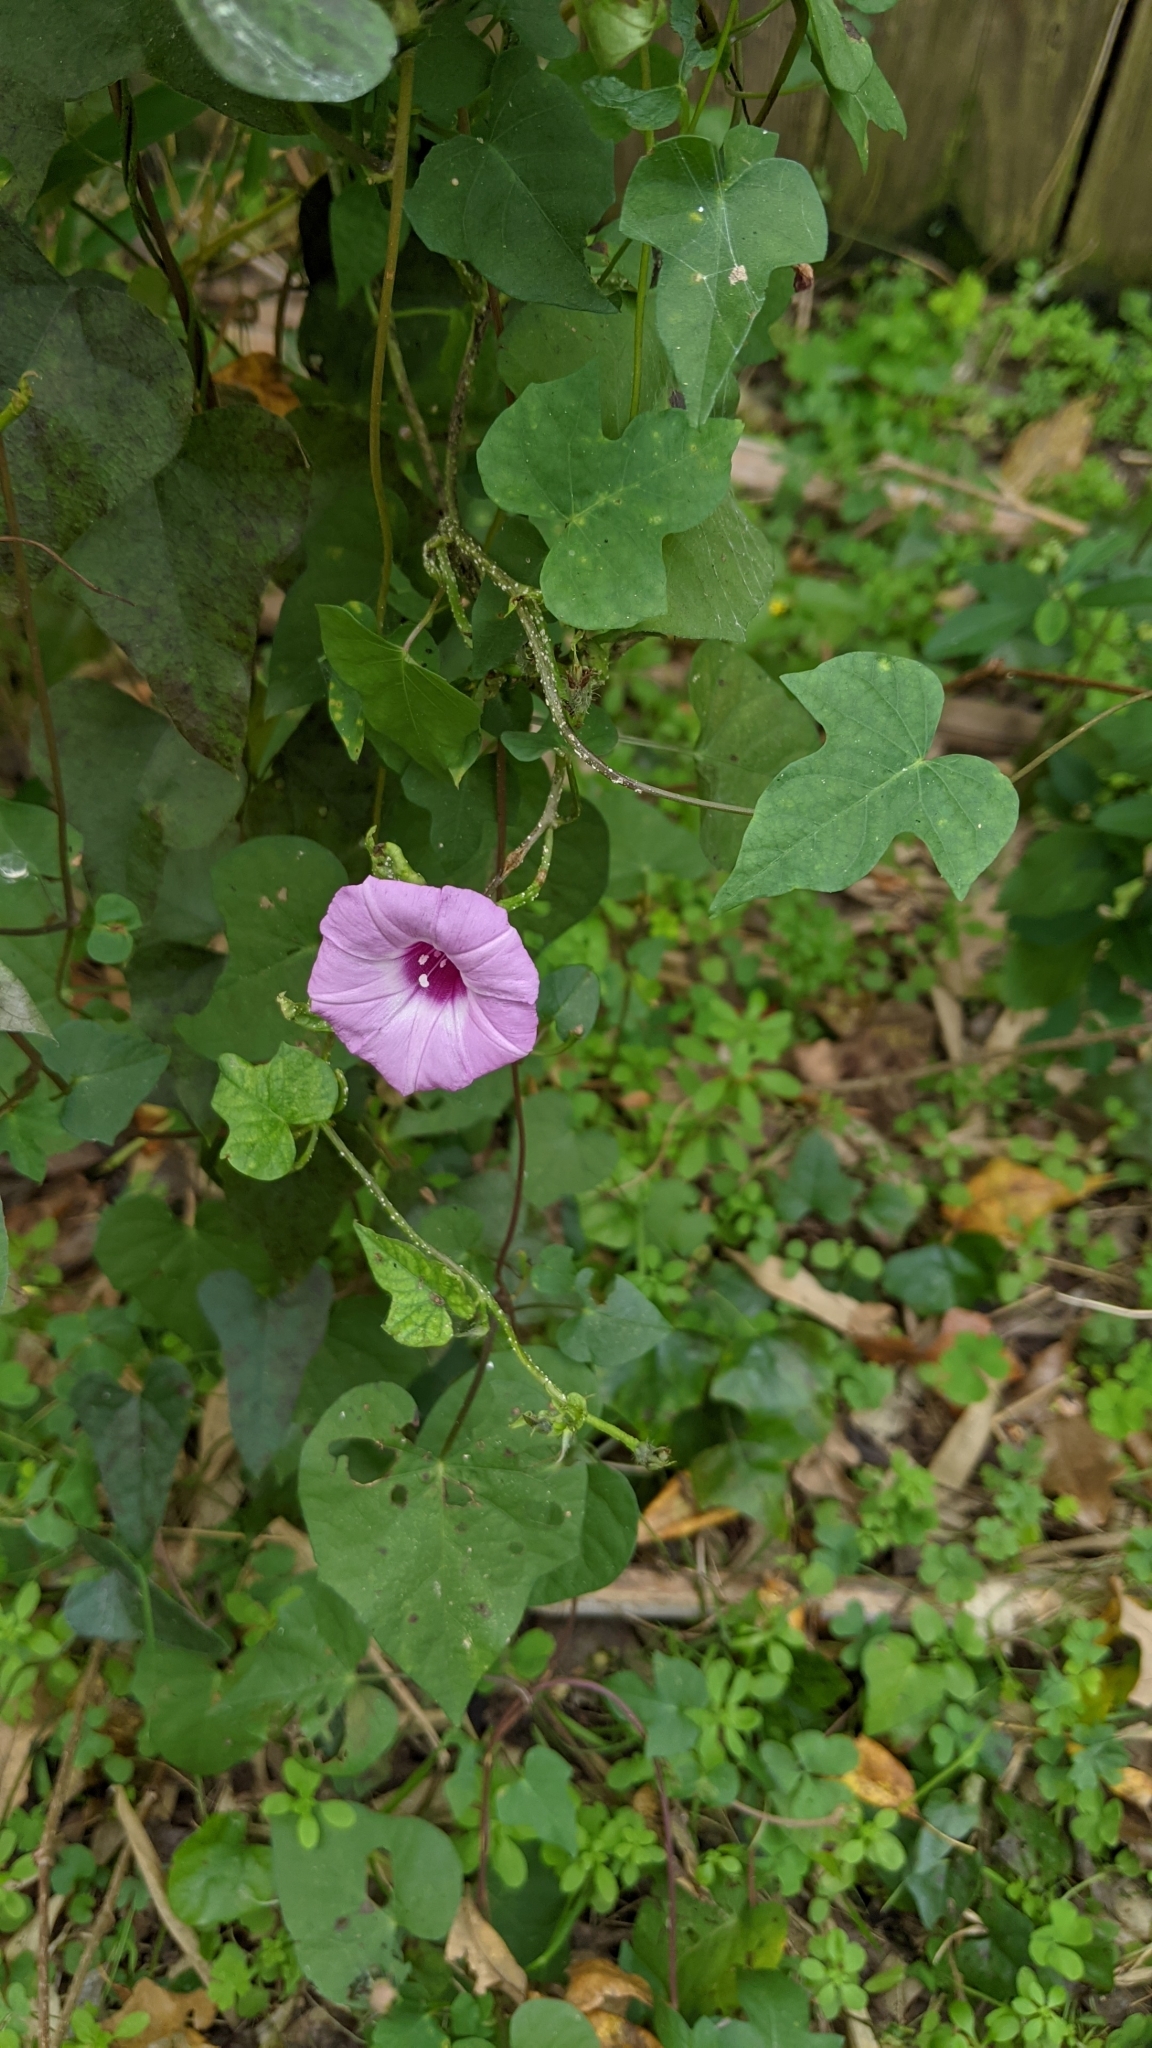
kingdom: Plantae
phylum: Tracheophyta
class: Magnoliopsida
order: Solanales
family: Convolvulaceae
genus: Ipomoea
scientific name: Ipomoea cordatotriloba
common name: Cotton morning glory
